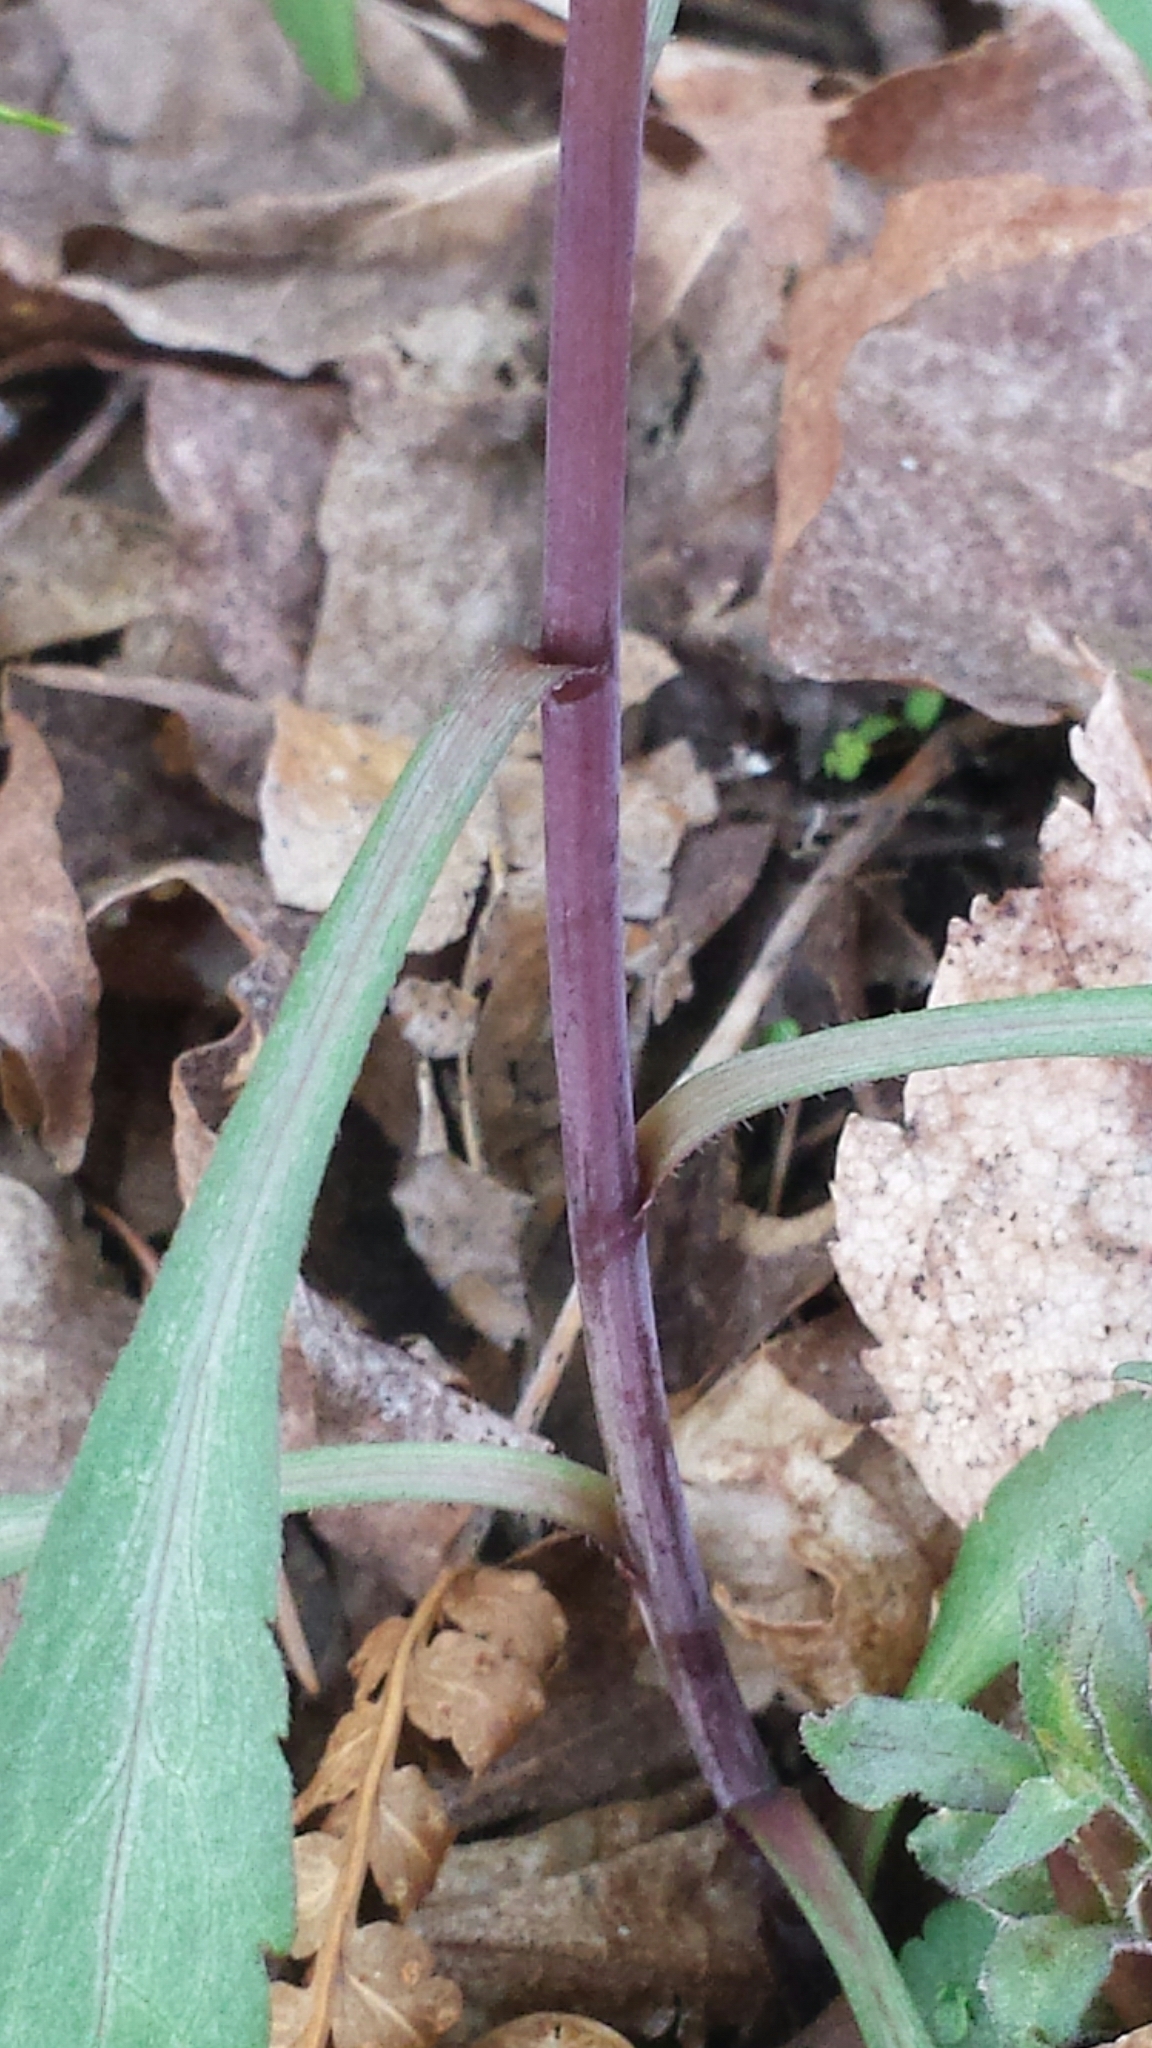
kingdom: Plantae
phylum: Tracheophyta
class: Magnoliopsida
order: Asterales
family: Asteraceae
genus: Solidago
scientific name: Solidago caesia
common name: Woodland goldenrod
